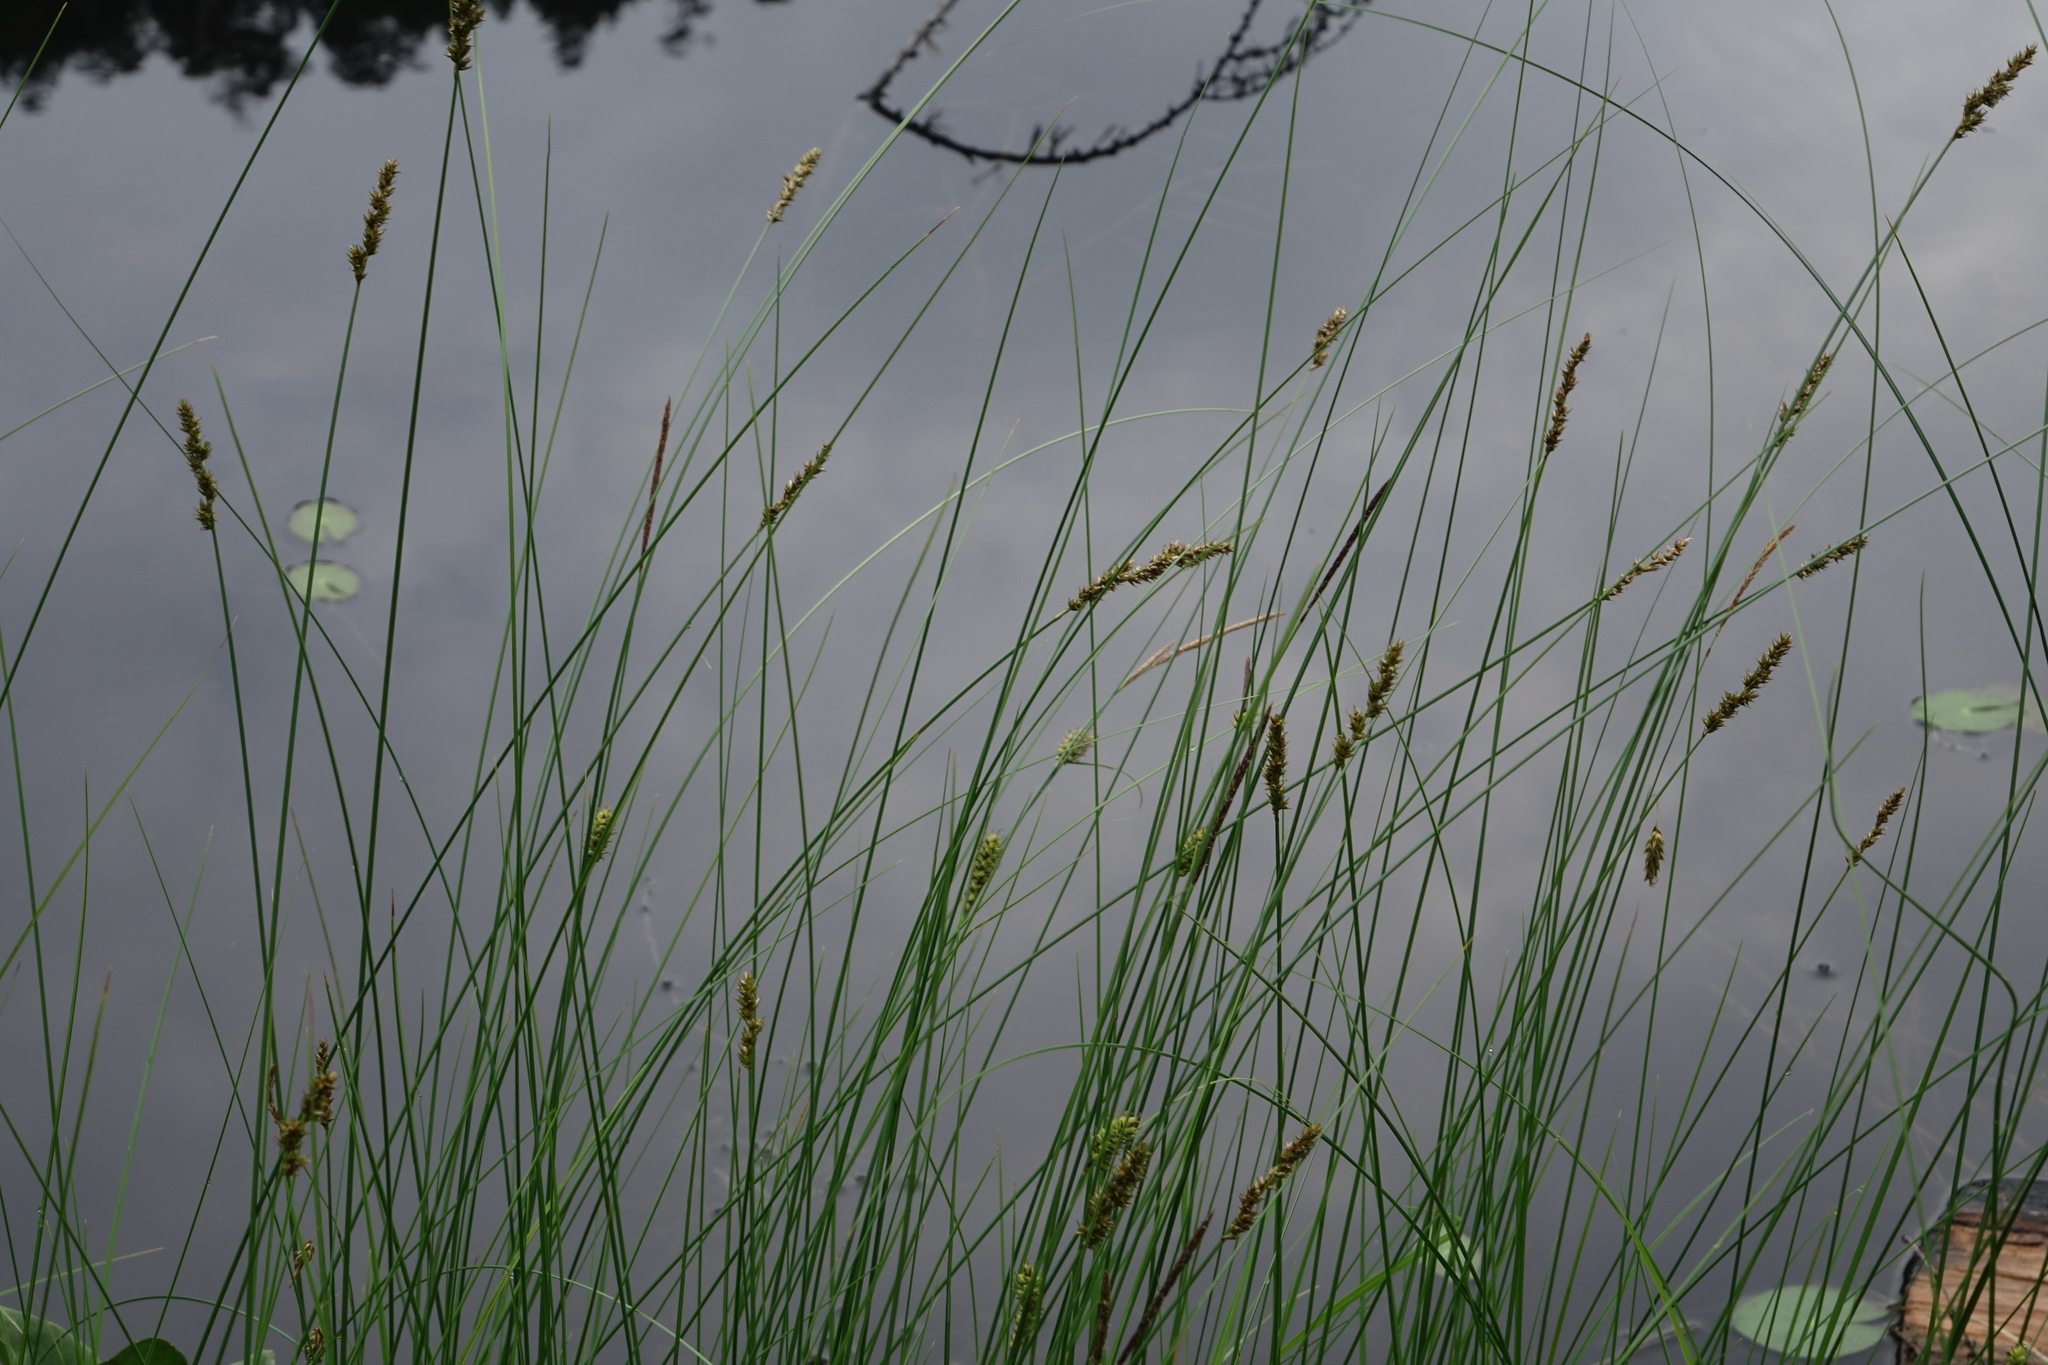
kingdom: Plantae
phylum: Tracheophyta
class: Liliopsida
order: Poales
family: Cyperaceae
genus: Carex
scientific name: Carex lasiocarpa
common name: Slender sedge
